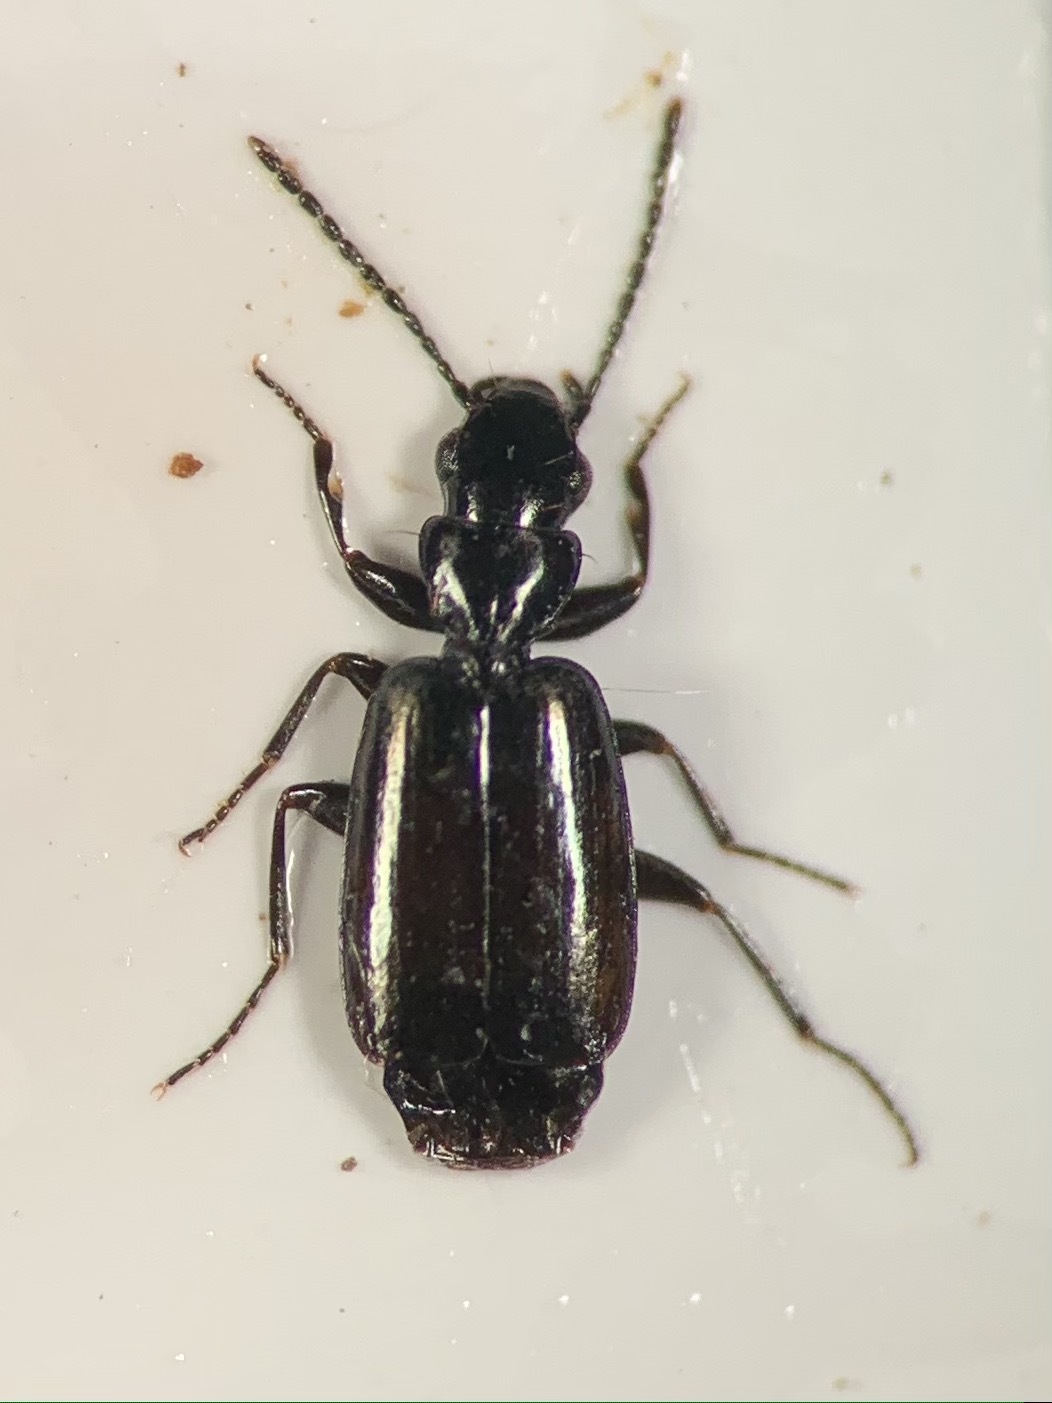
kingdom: Animalia
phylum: Arthropoda
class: Insecta
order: Coleoptera
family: Carabidae
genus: Microlestes
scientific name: Microlestes luctuosus
